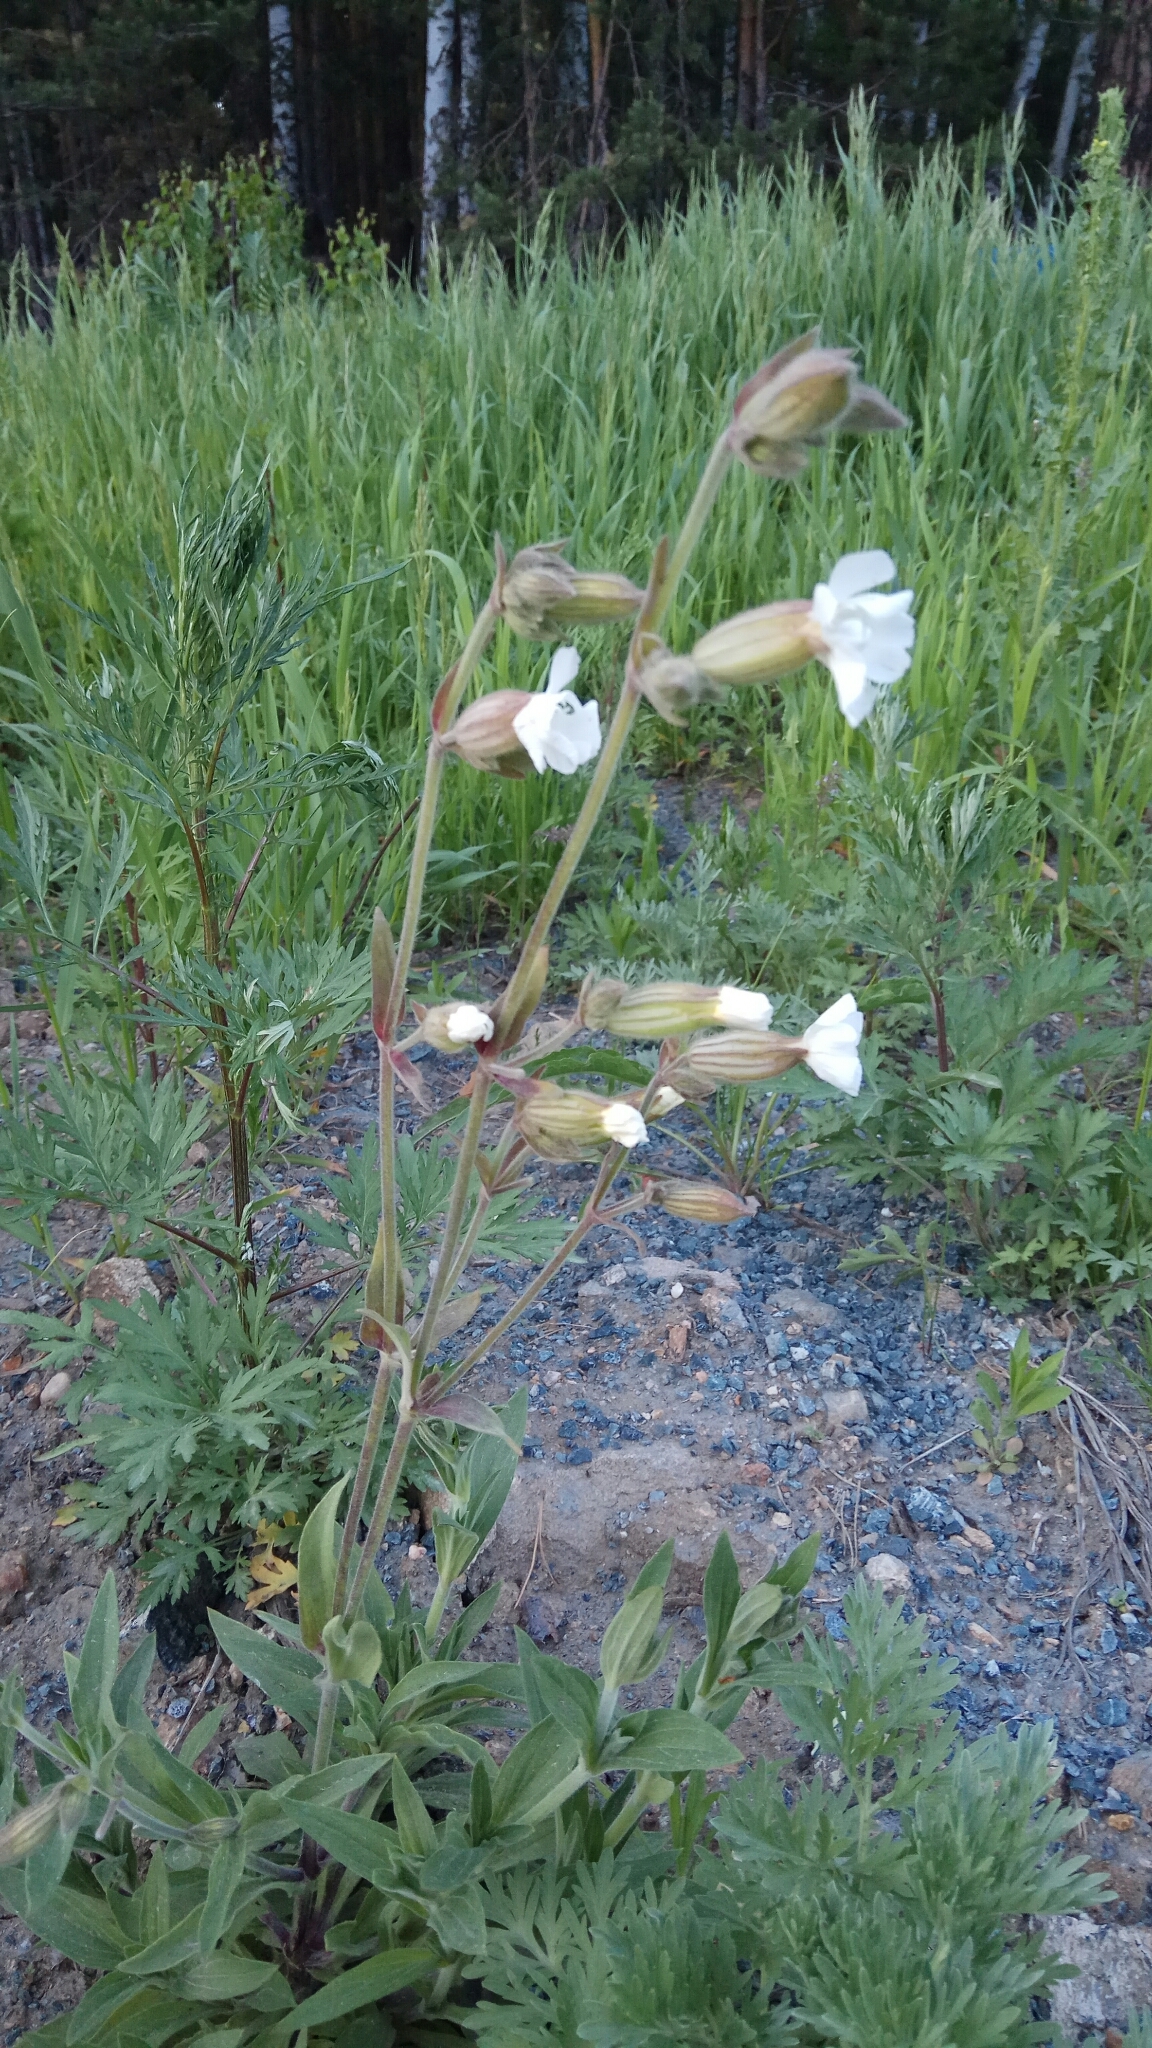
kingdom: Plantae
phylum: Tracheophyta
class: Magnoliopsida
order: Caryophyllales
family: Caryophyllaceae
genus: Silene
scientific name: Silene latifolia
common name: White campion
